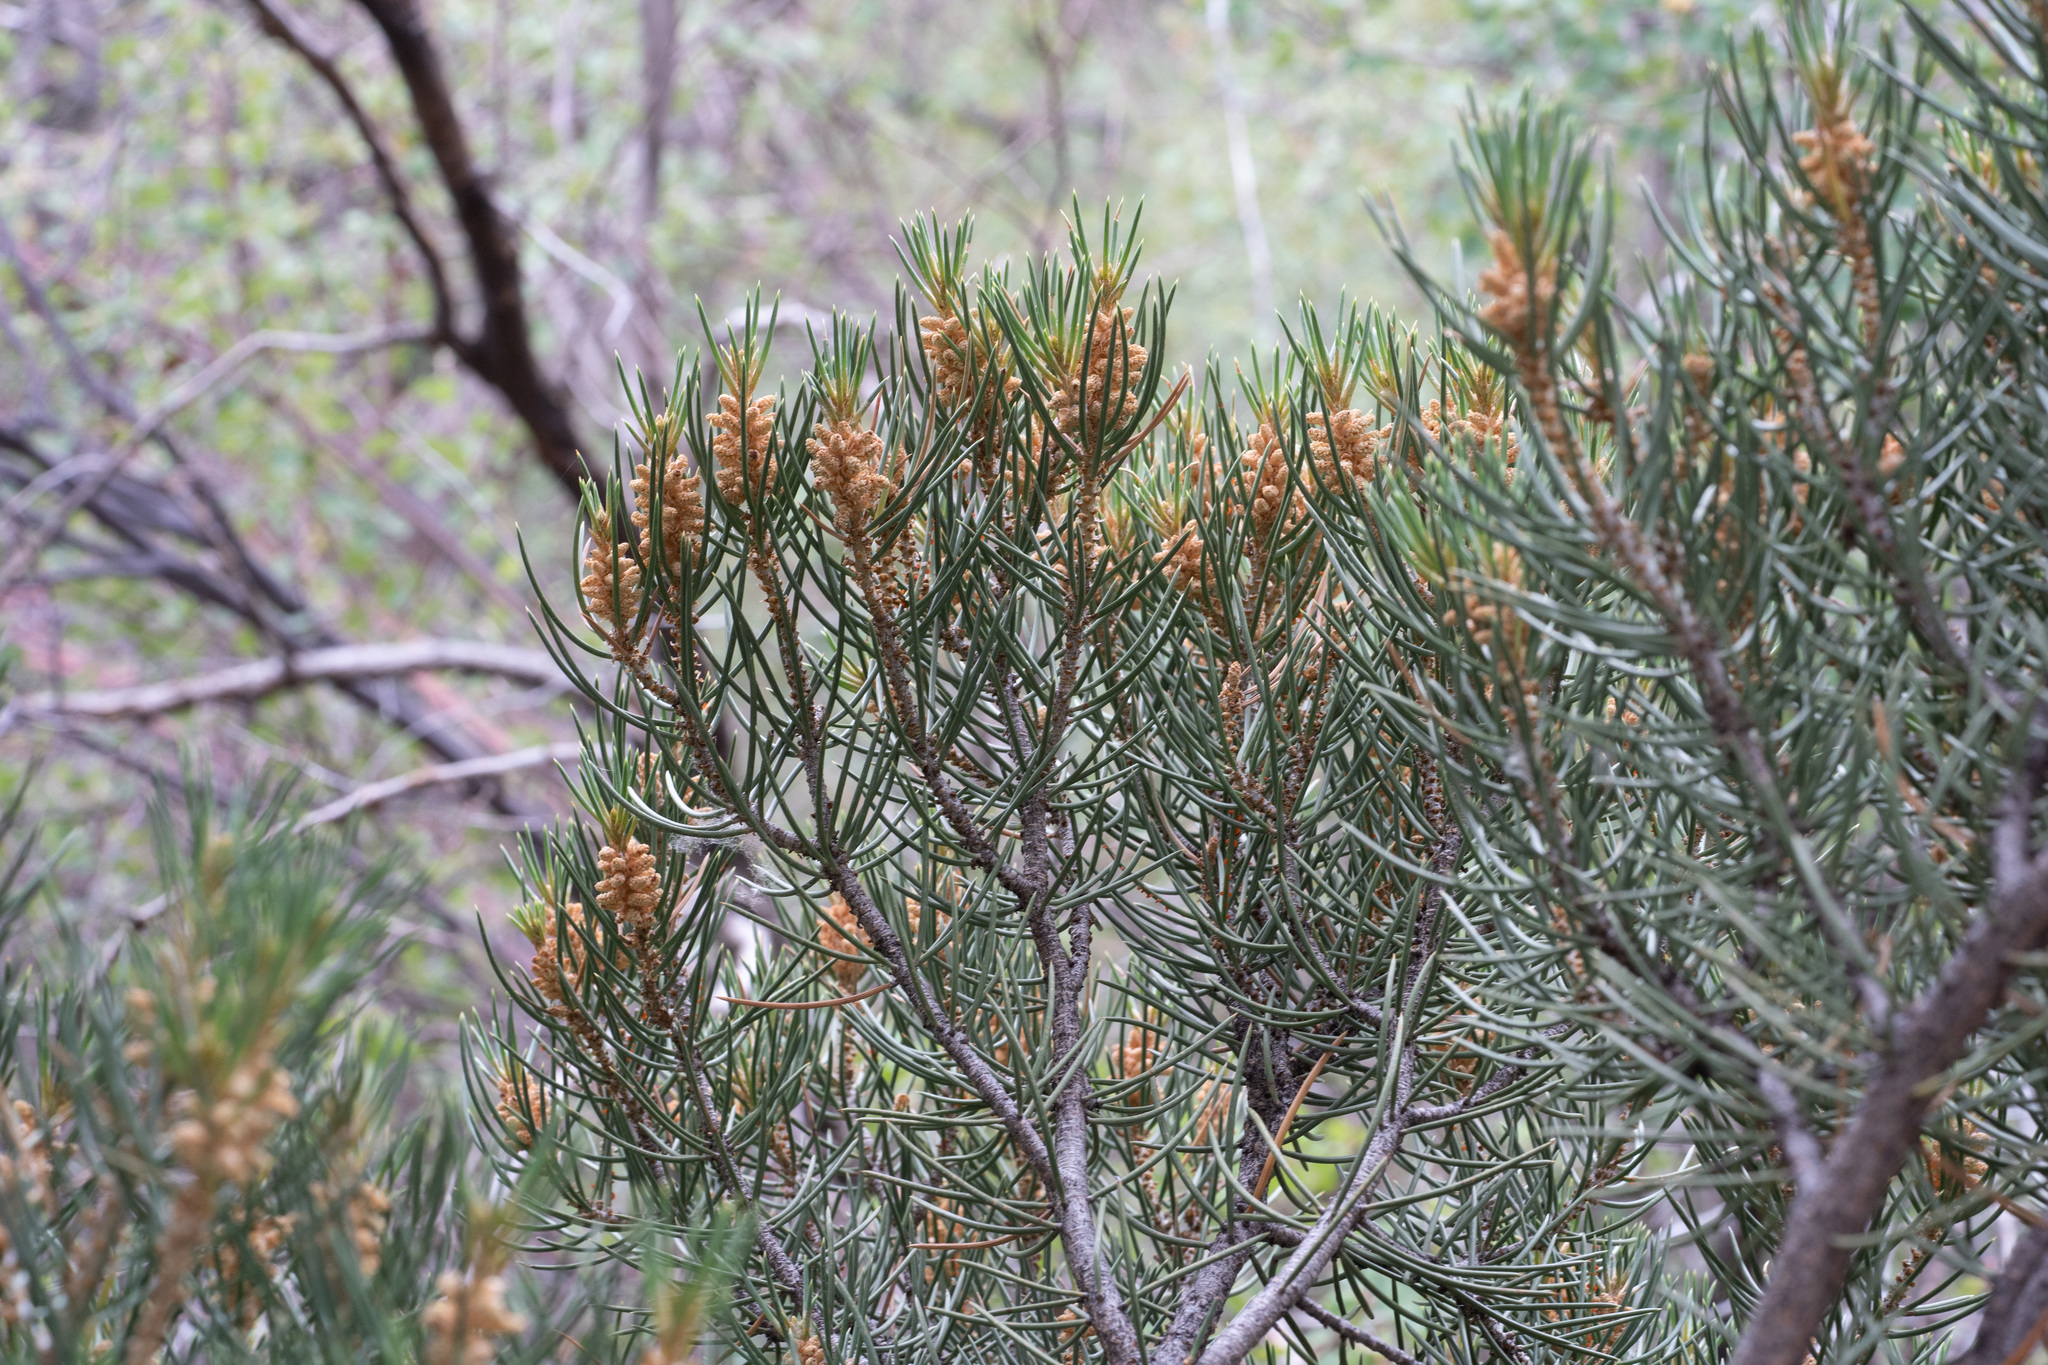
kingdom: Plantae
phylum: Tracheophyta
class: Pinopsida
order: Pinales
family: Pinaceae
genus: Pinus
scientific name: Pinus monophylla
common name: One-leaved nut pine
